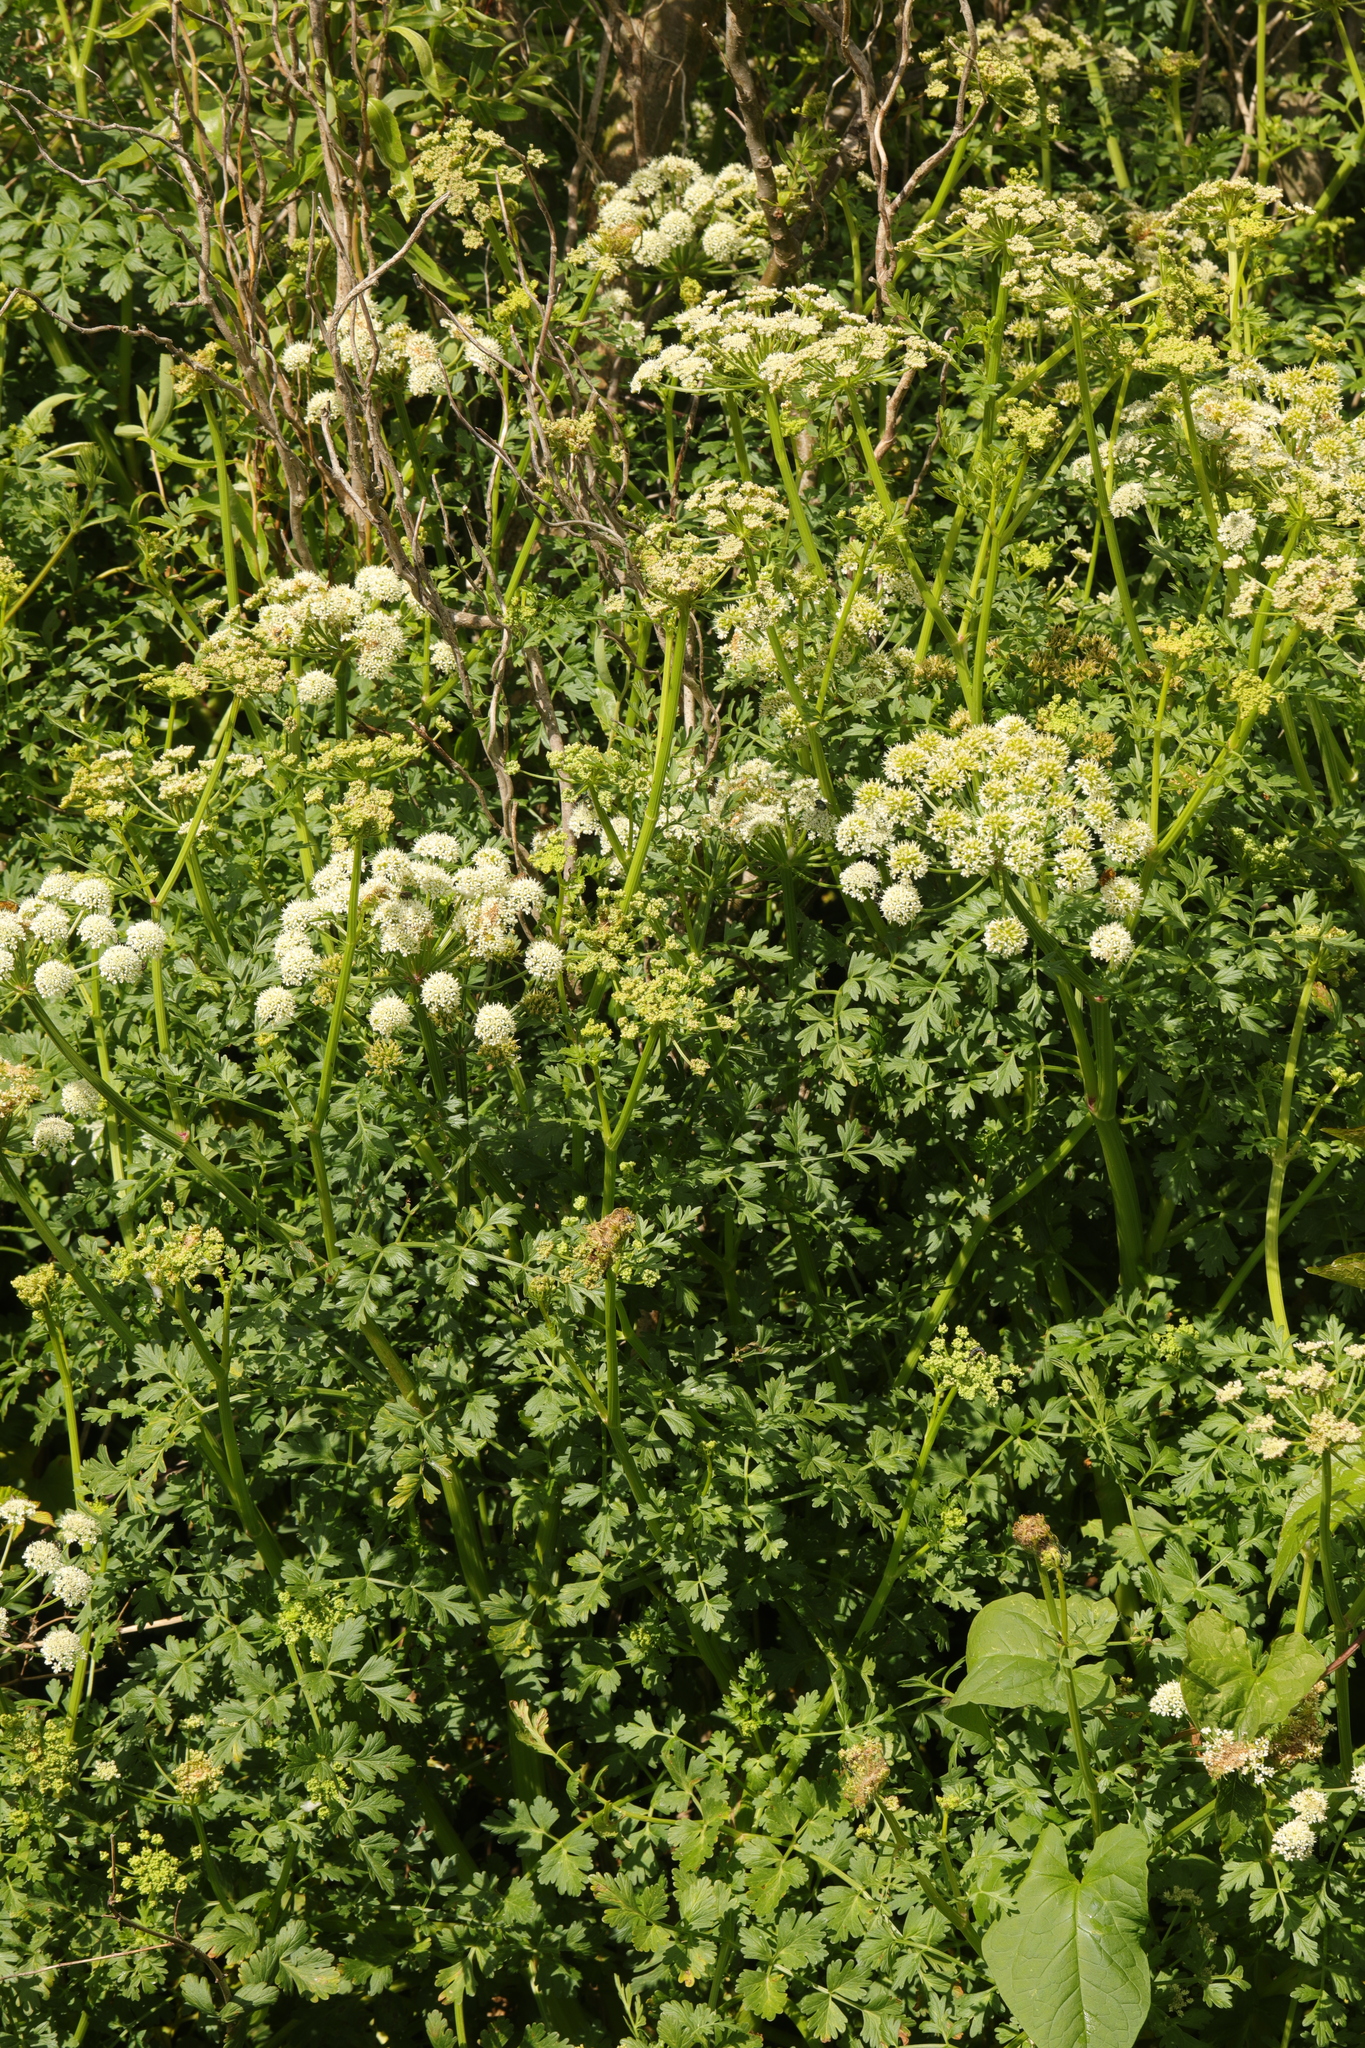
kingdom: Plantae
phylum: Tracheophyta
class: Magnoliopsida
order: Apiales
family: Apiaceae
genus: Oenanthe
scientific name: Oenanthe crocata
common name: Hemlock water-dropwort
